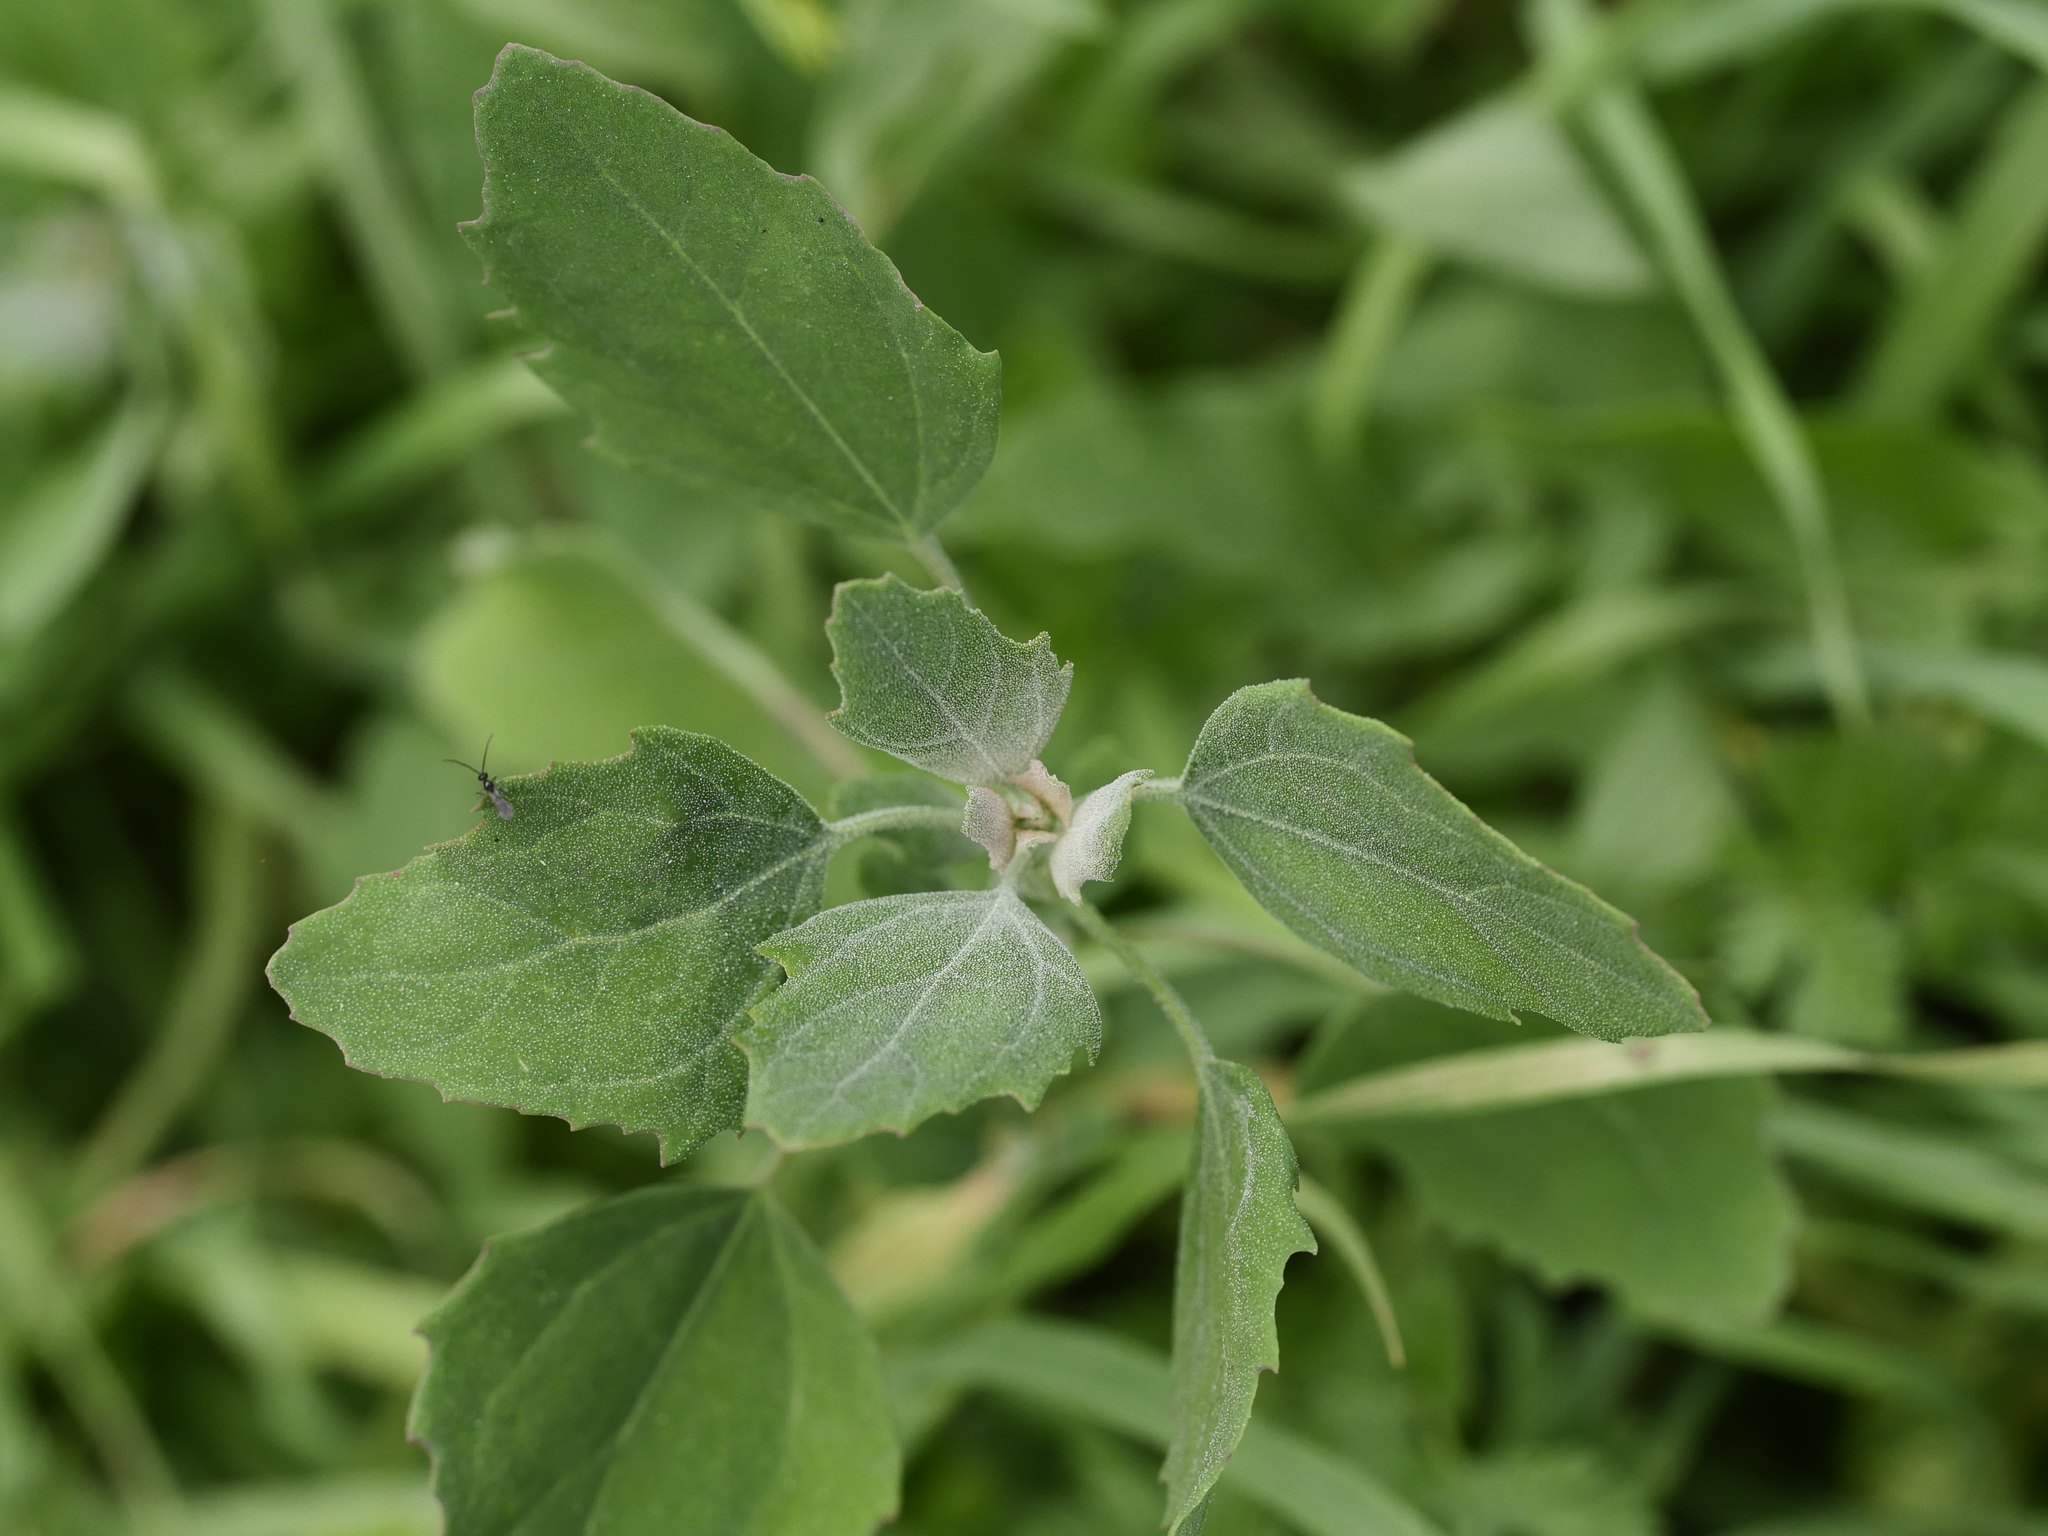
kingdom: Plantae
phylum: Tracheophyta
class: Magnoliopsida
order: Caryophyllales
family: Amaranthaceae
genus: Chenopodium
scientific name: Chenopodium album
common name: Fat-hen
